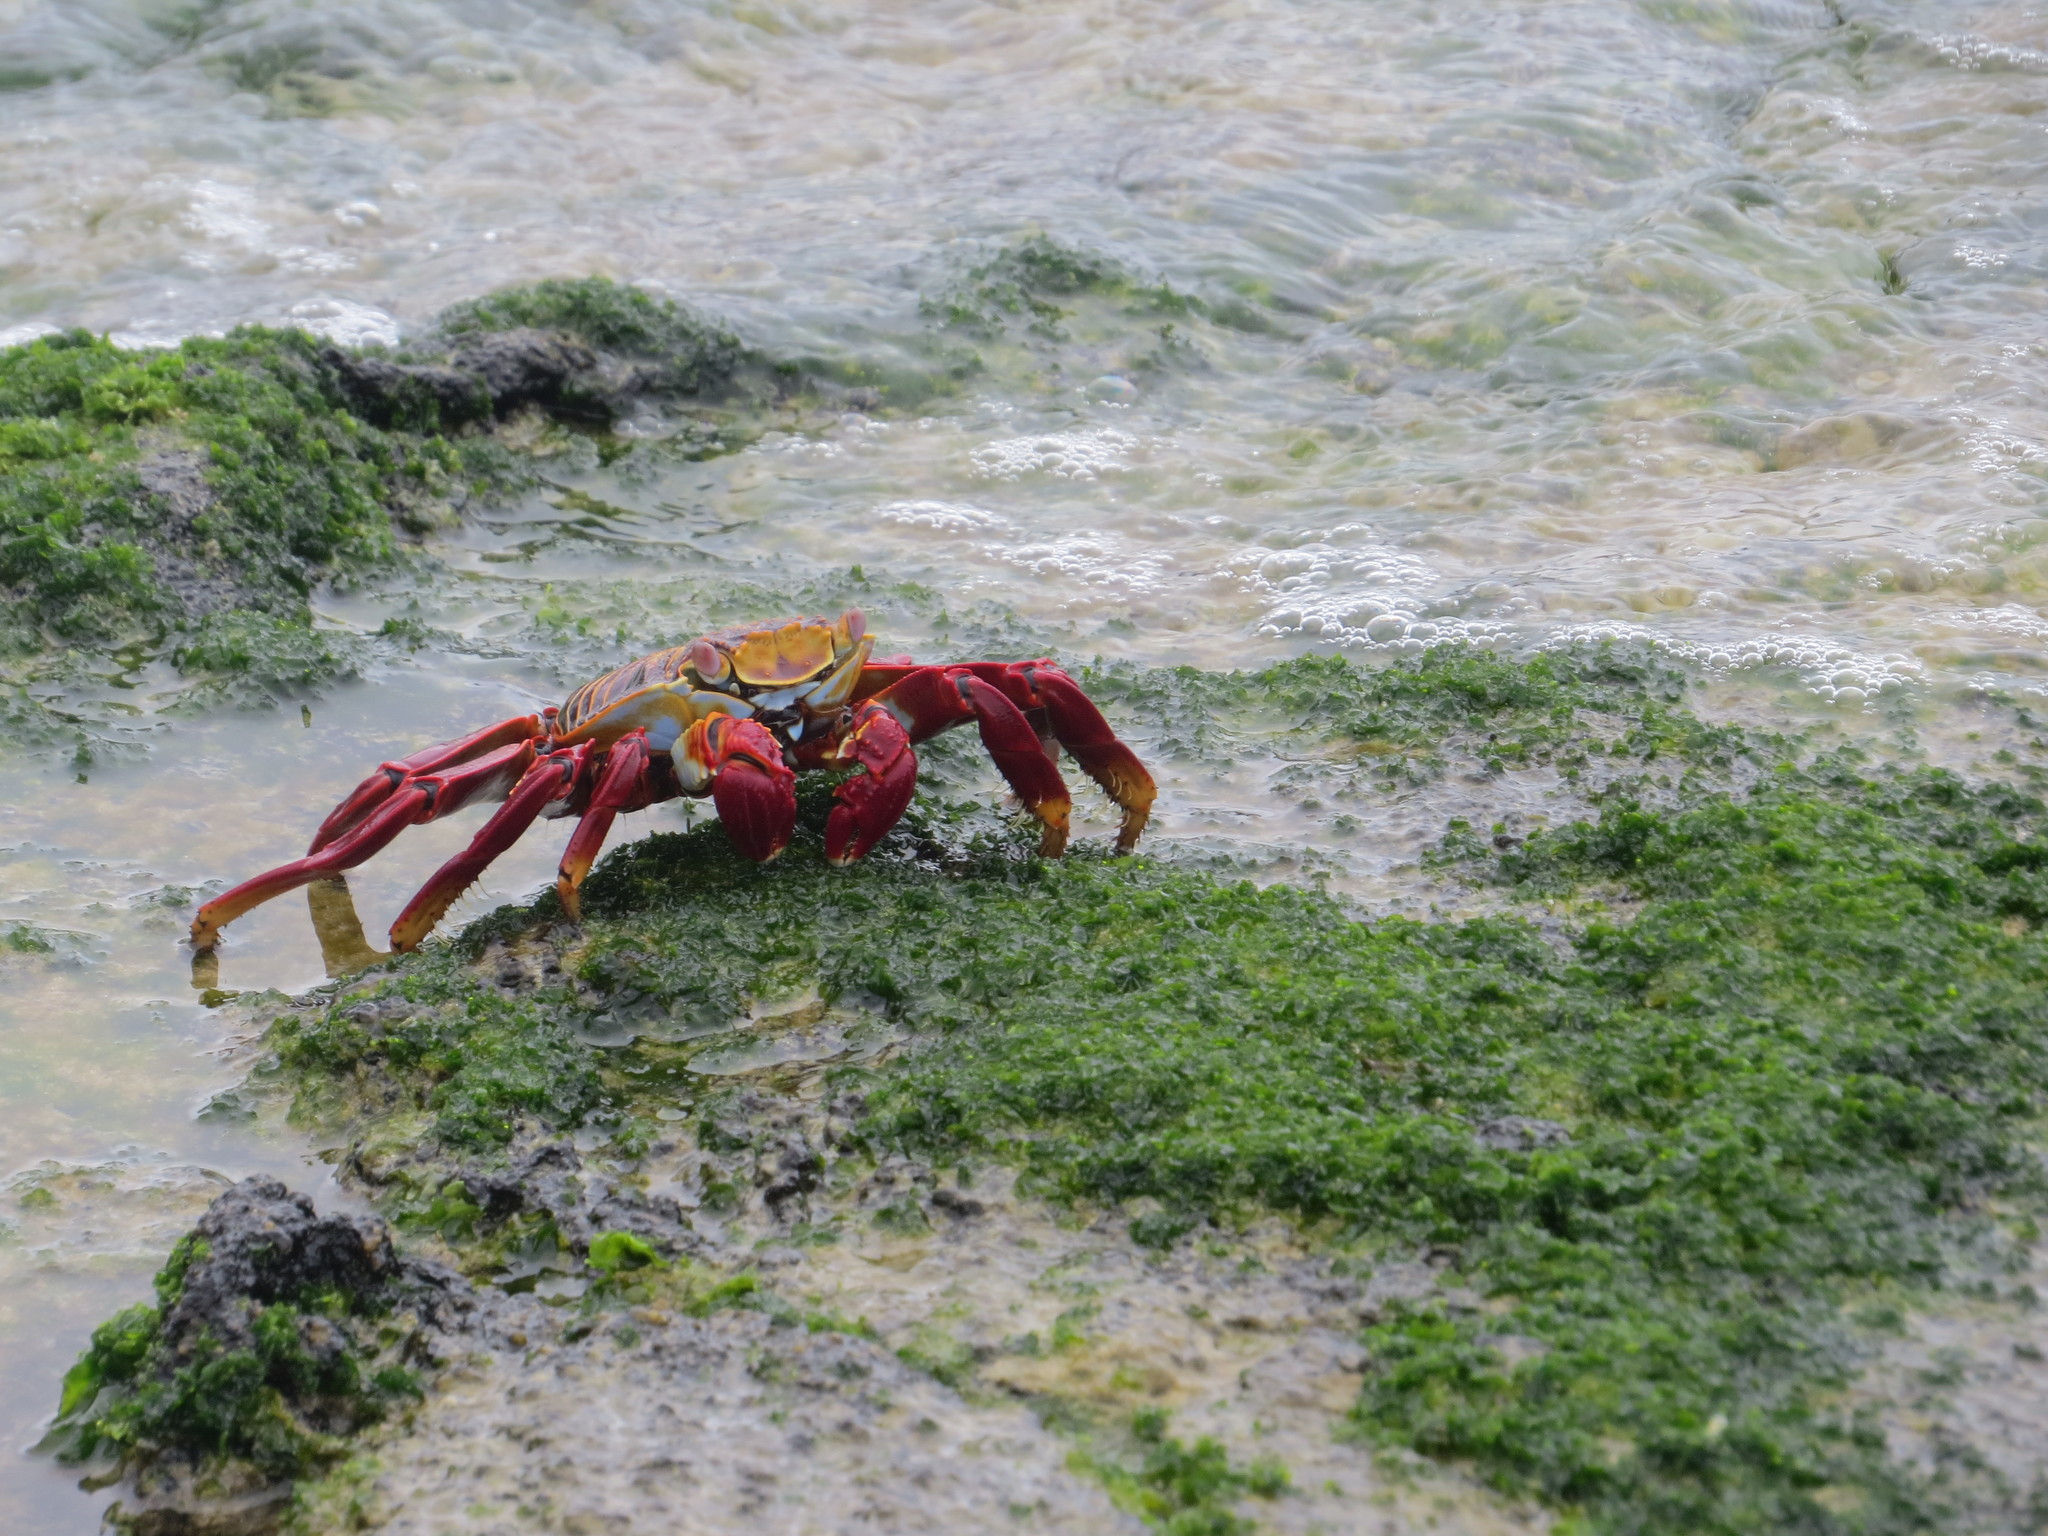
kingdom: Animalia
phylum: Arthropoda
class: Malacostraca
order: Decapoda
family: Grapsidae
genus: Grapsus
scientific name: Grapsus grapsus
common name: Sally lightfoot
